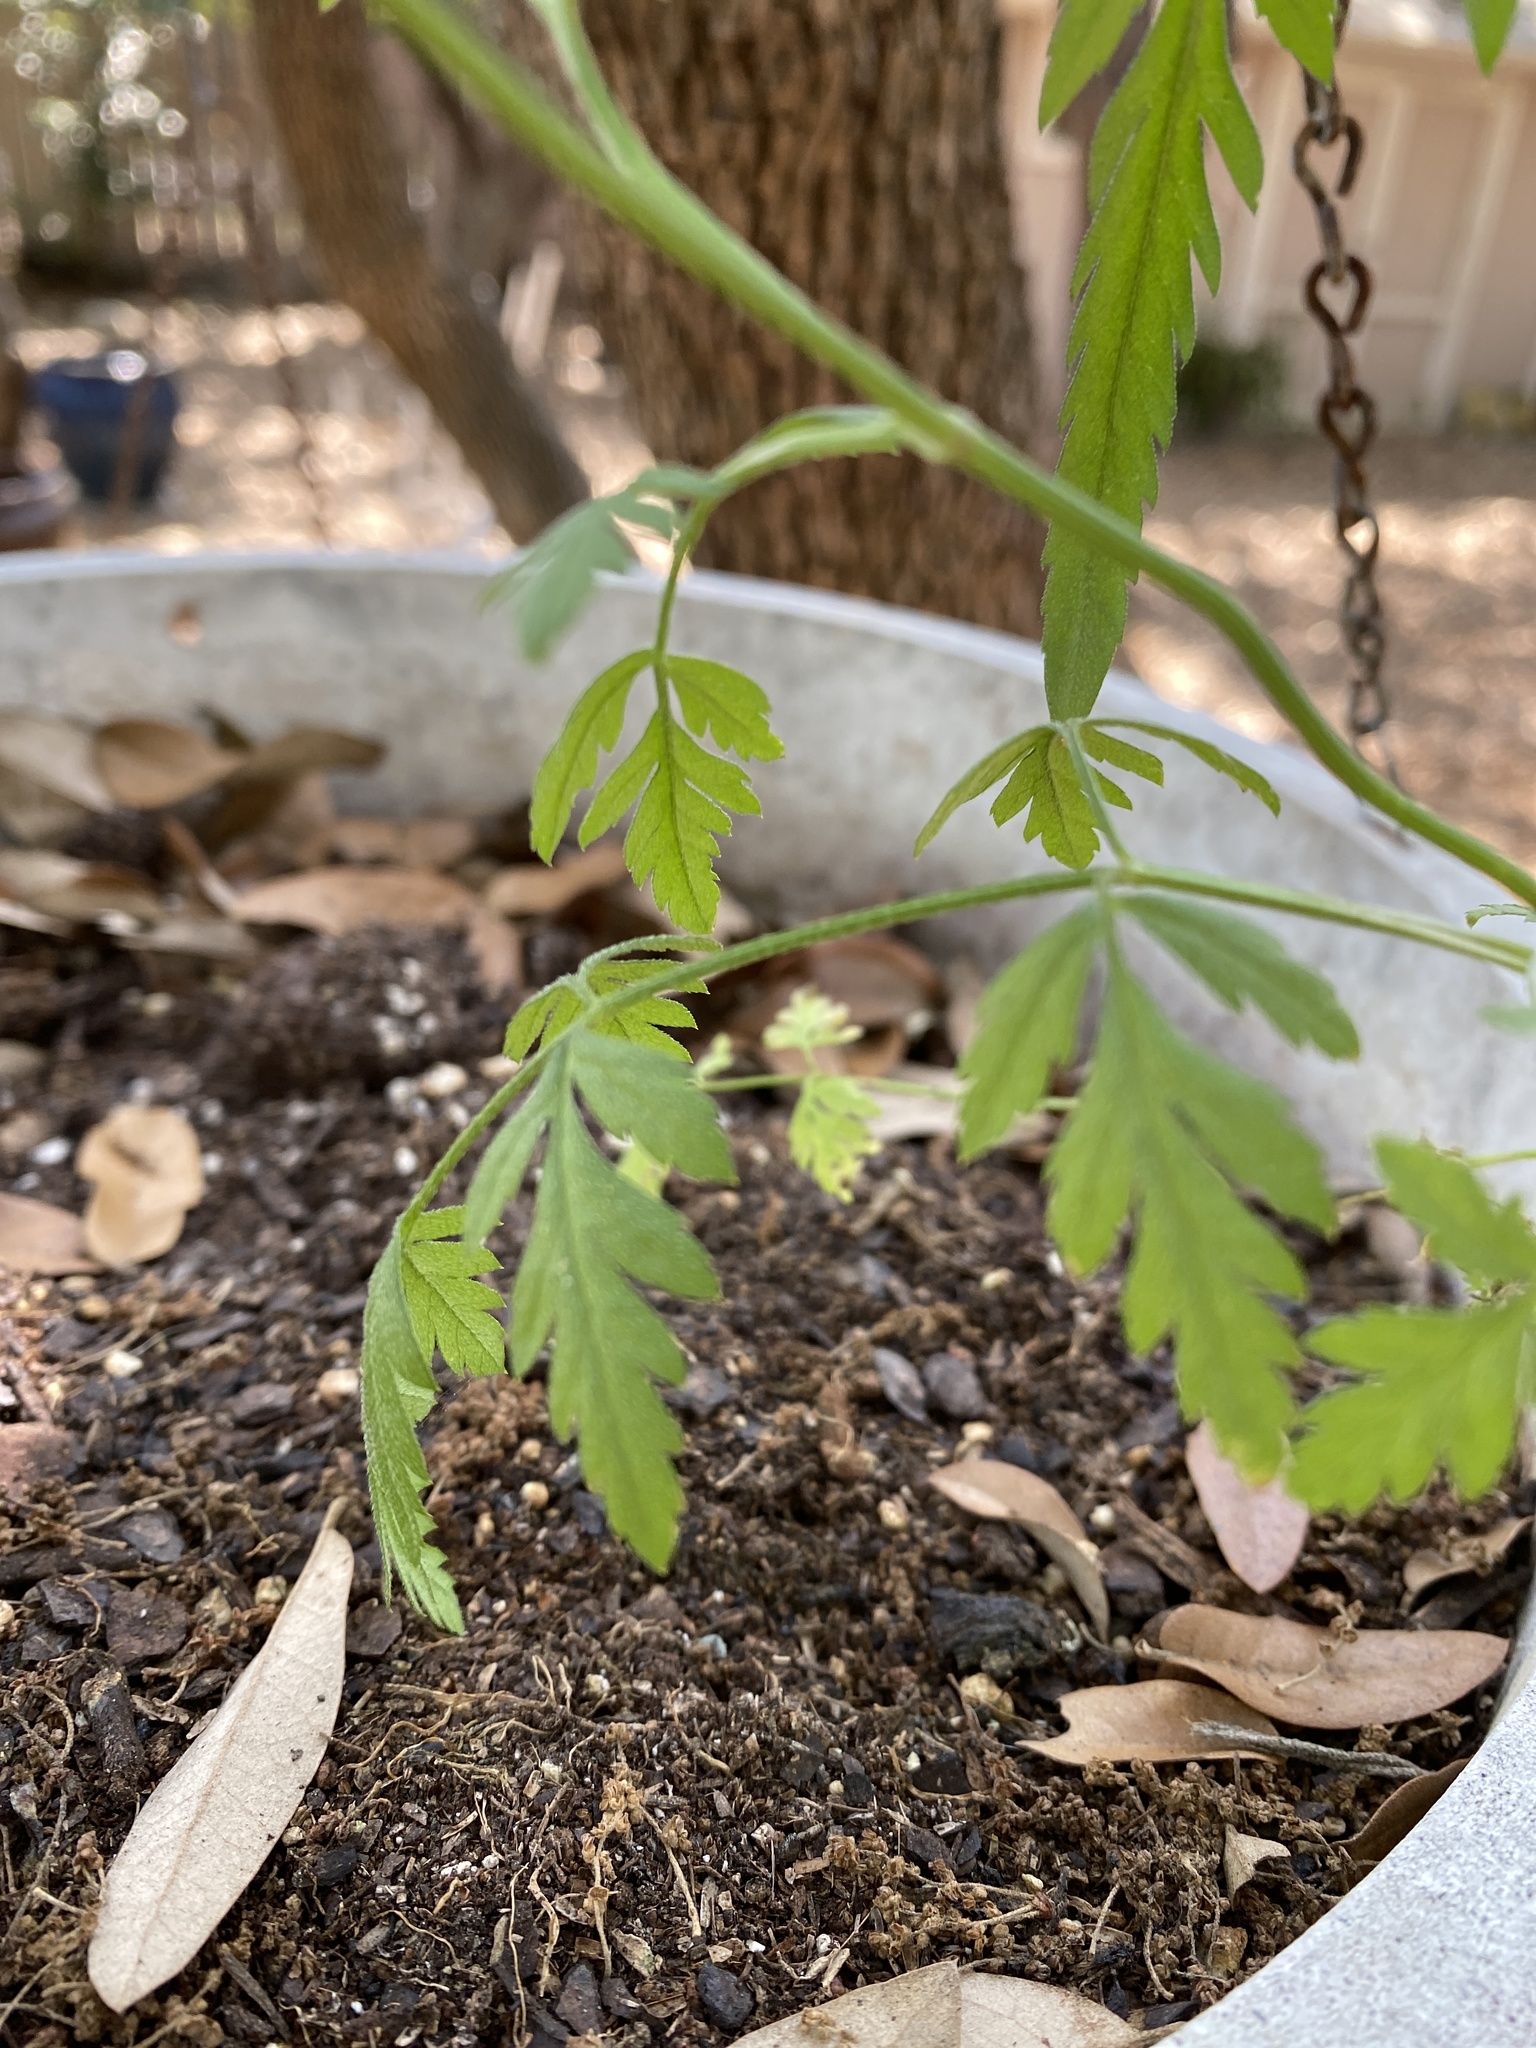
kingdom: Plantae
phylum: Tracheophyta
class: Magnoliopsida
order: Apiales
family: Apiaceae
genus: Torilis
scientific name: Torilis arvensis
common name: Spreading hedge-parsley
